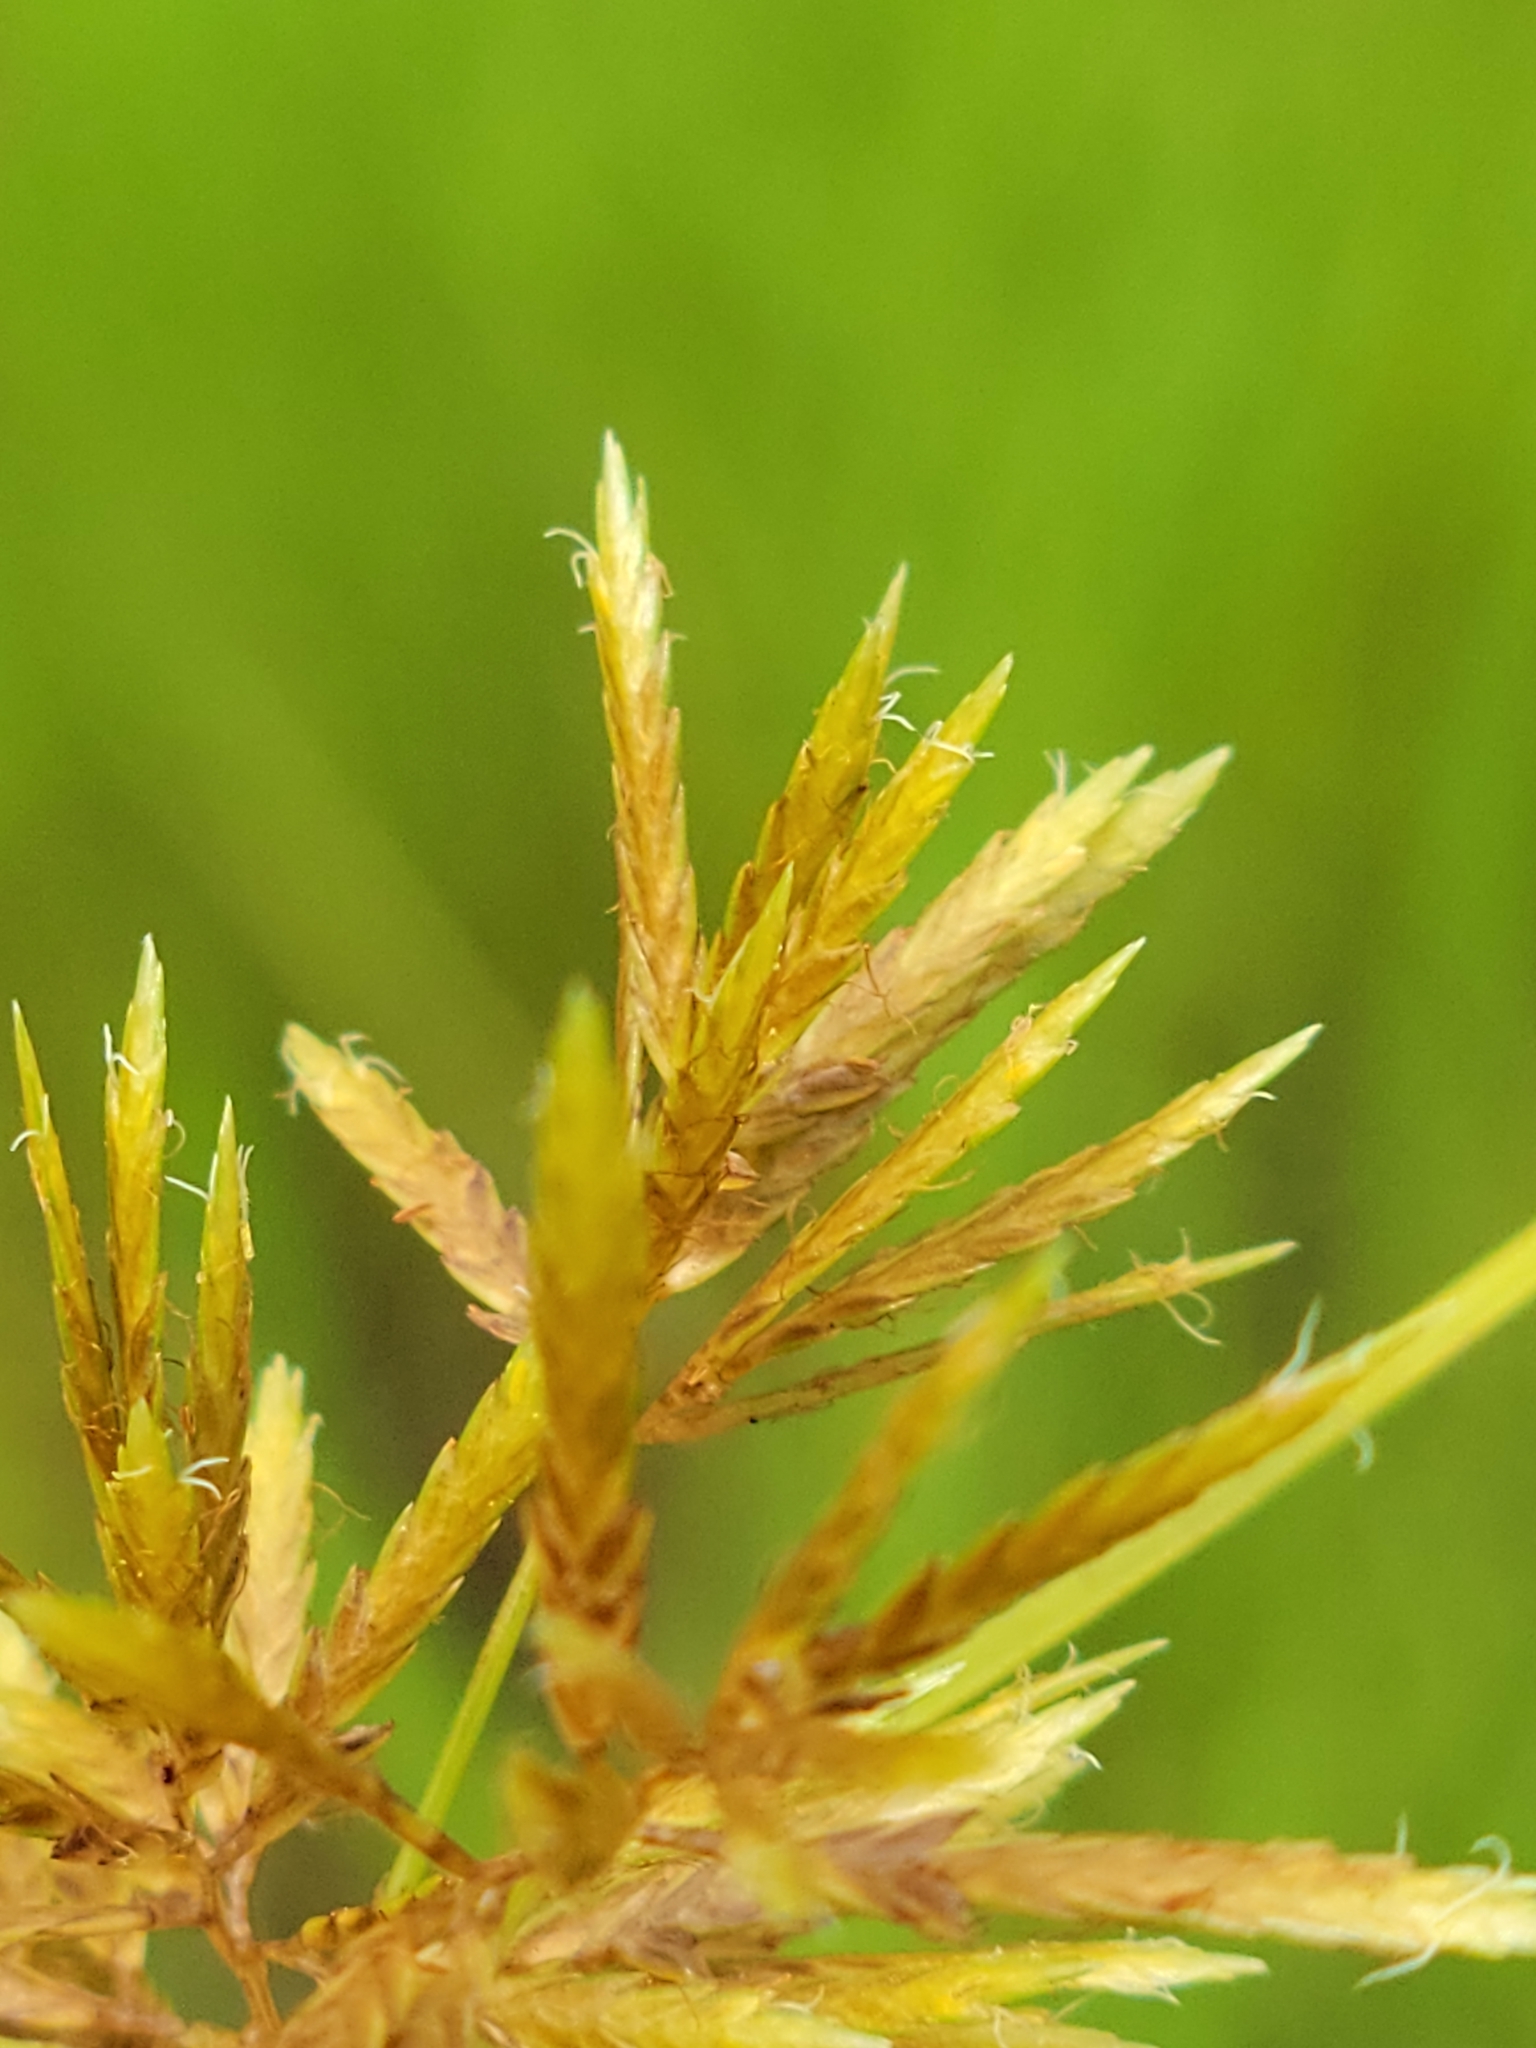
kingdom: Plantae
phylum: Tracheophyta
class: Liliopsida
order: Poales
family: Cyperaceae
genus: Cyperus
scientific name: Cyperus polystachyos
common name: Bunchy flat sedge
